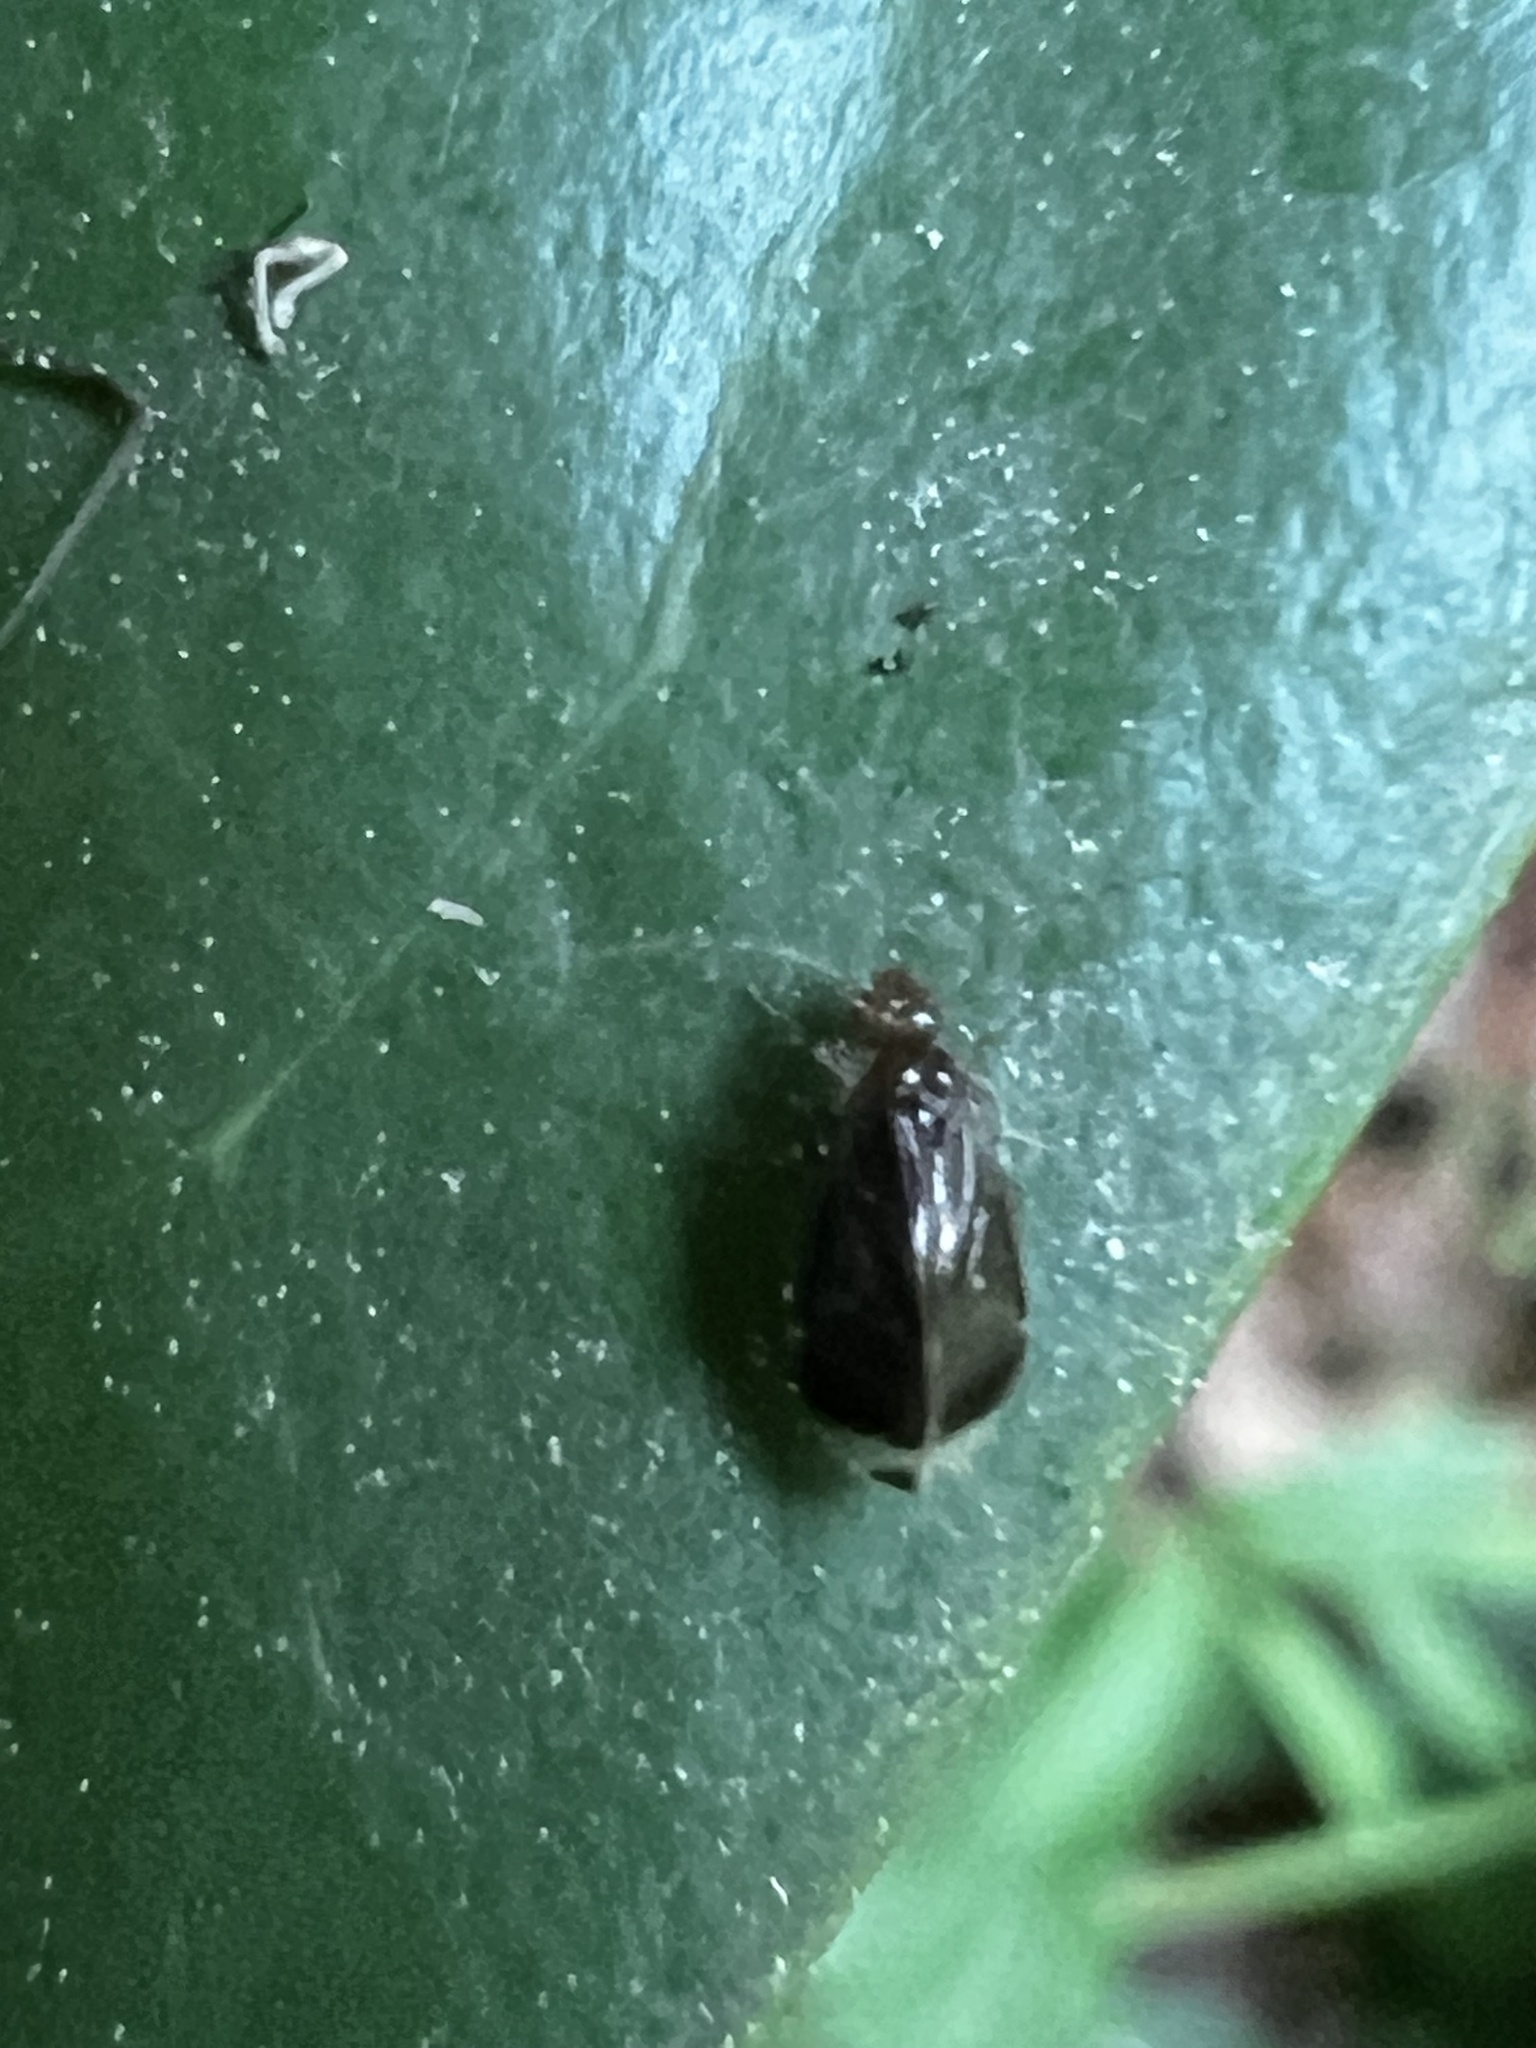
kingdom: Animalia
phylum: Arthropoda
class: Insecta
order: Psocodea
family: Amphipsocidae
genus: Polypsocus
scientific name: Polypsocus corruptus
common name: Corrupt barklouse
